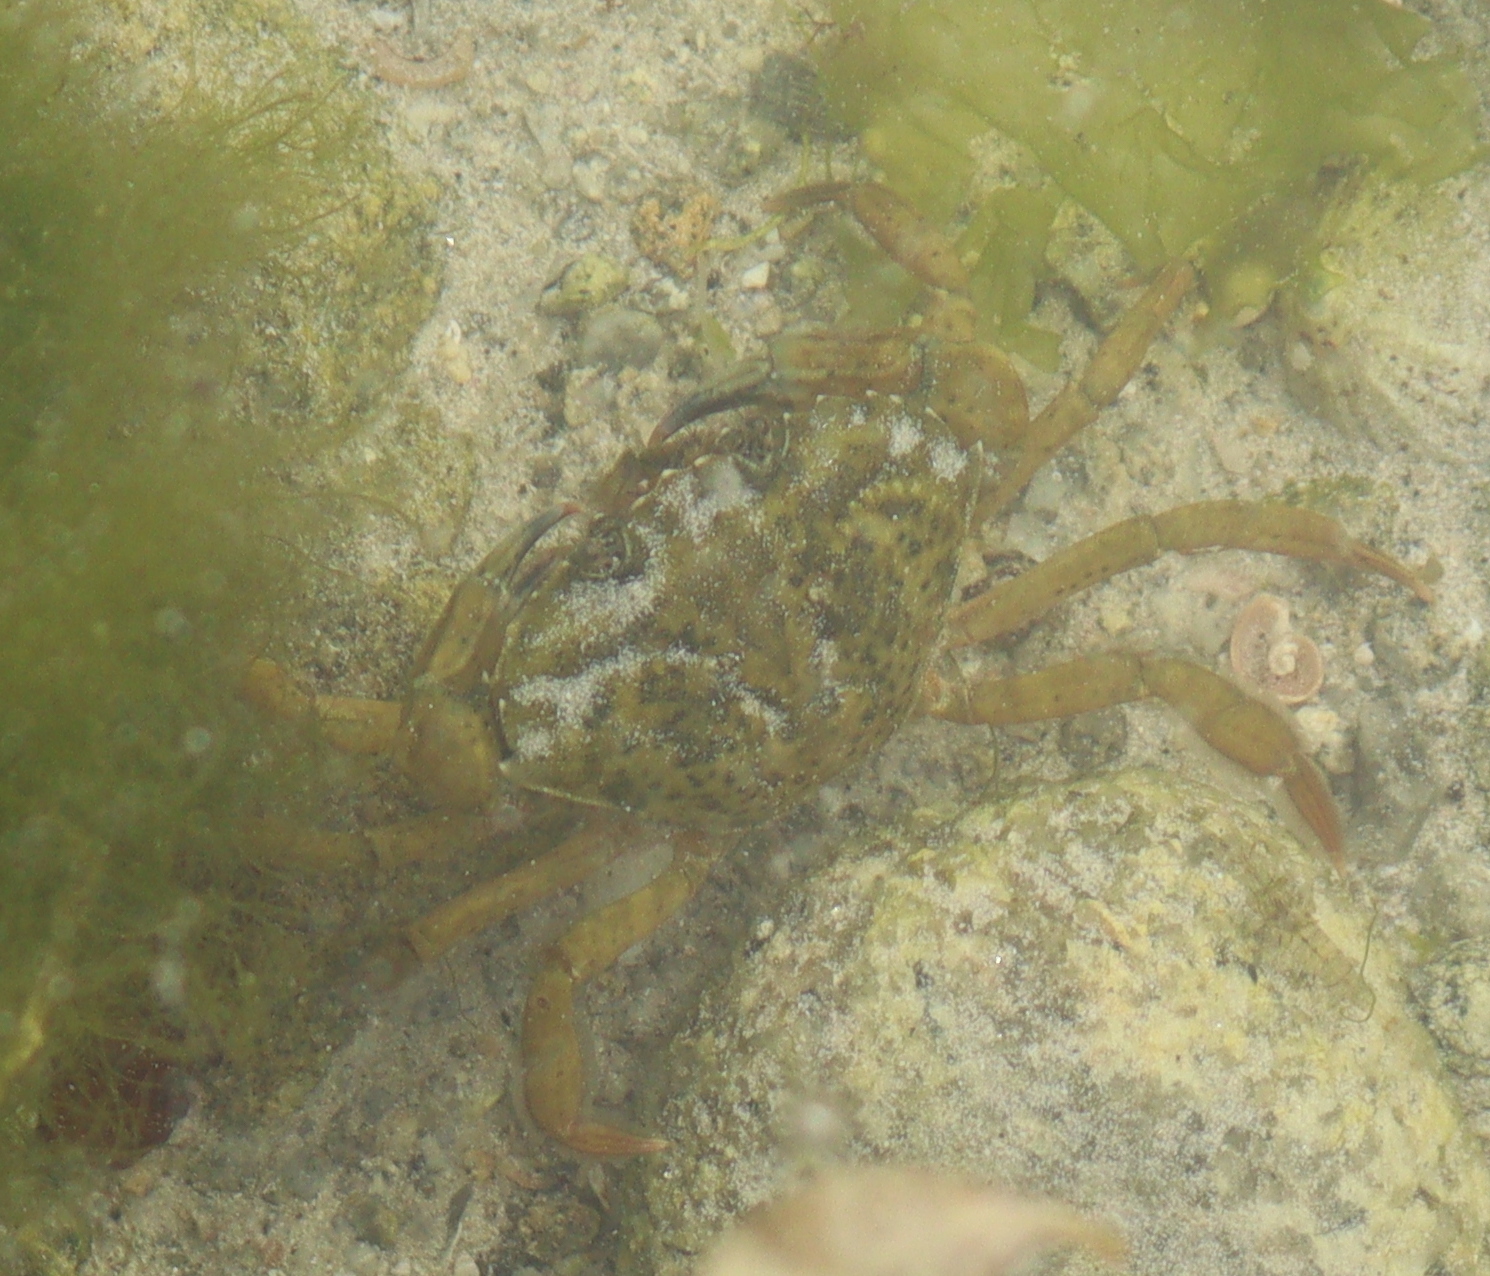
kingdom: Animalia
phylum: Arthropoda
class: Malacostraca
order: Decapoda
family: Carcinidae
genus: Carcinus
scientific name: Carcinus maenas
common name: European green crab
